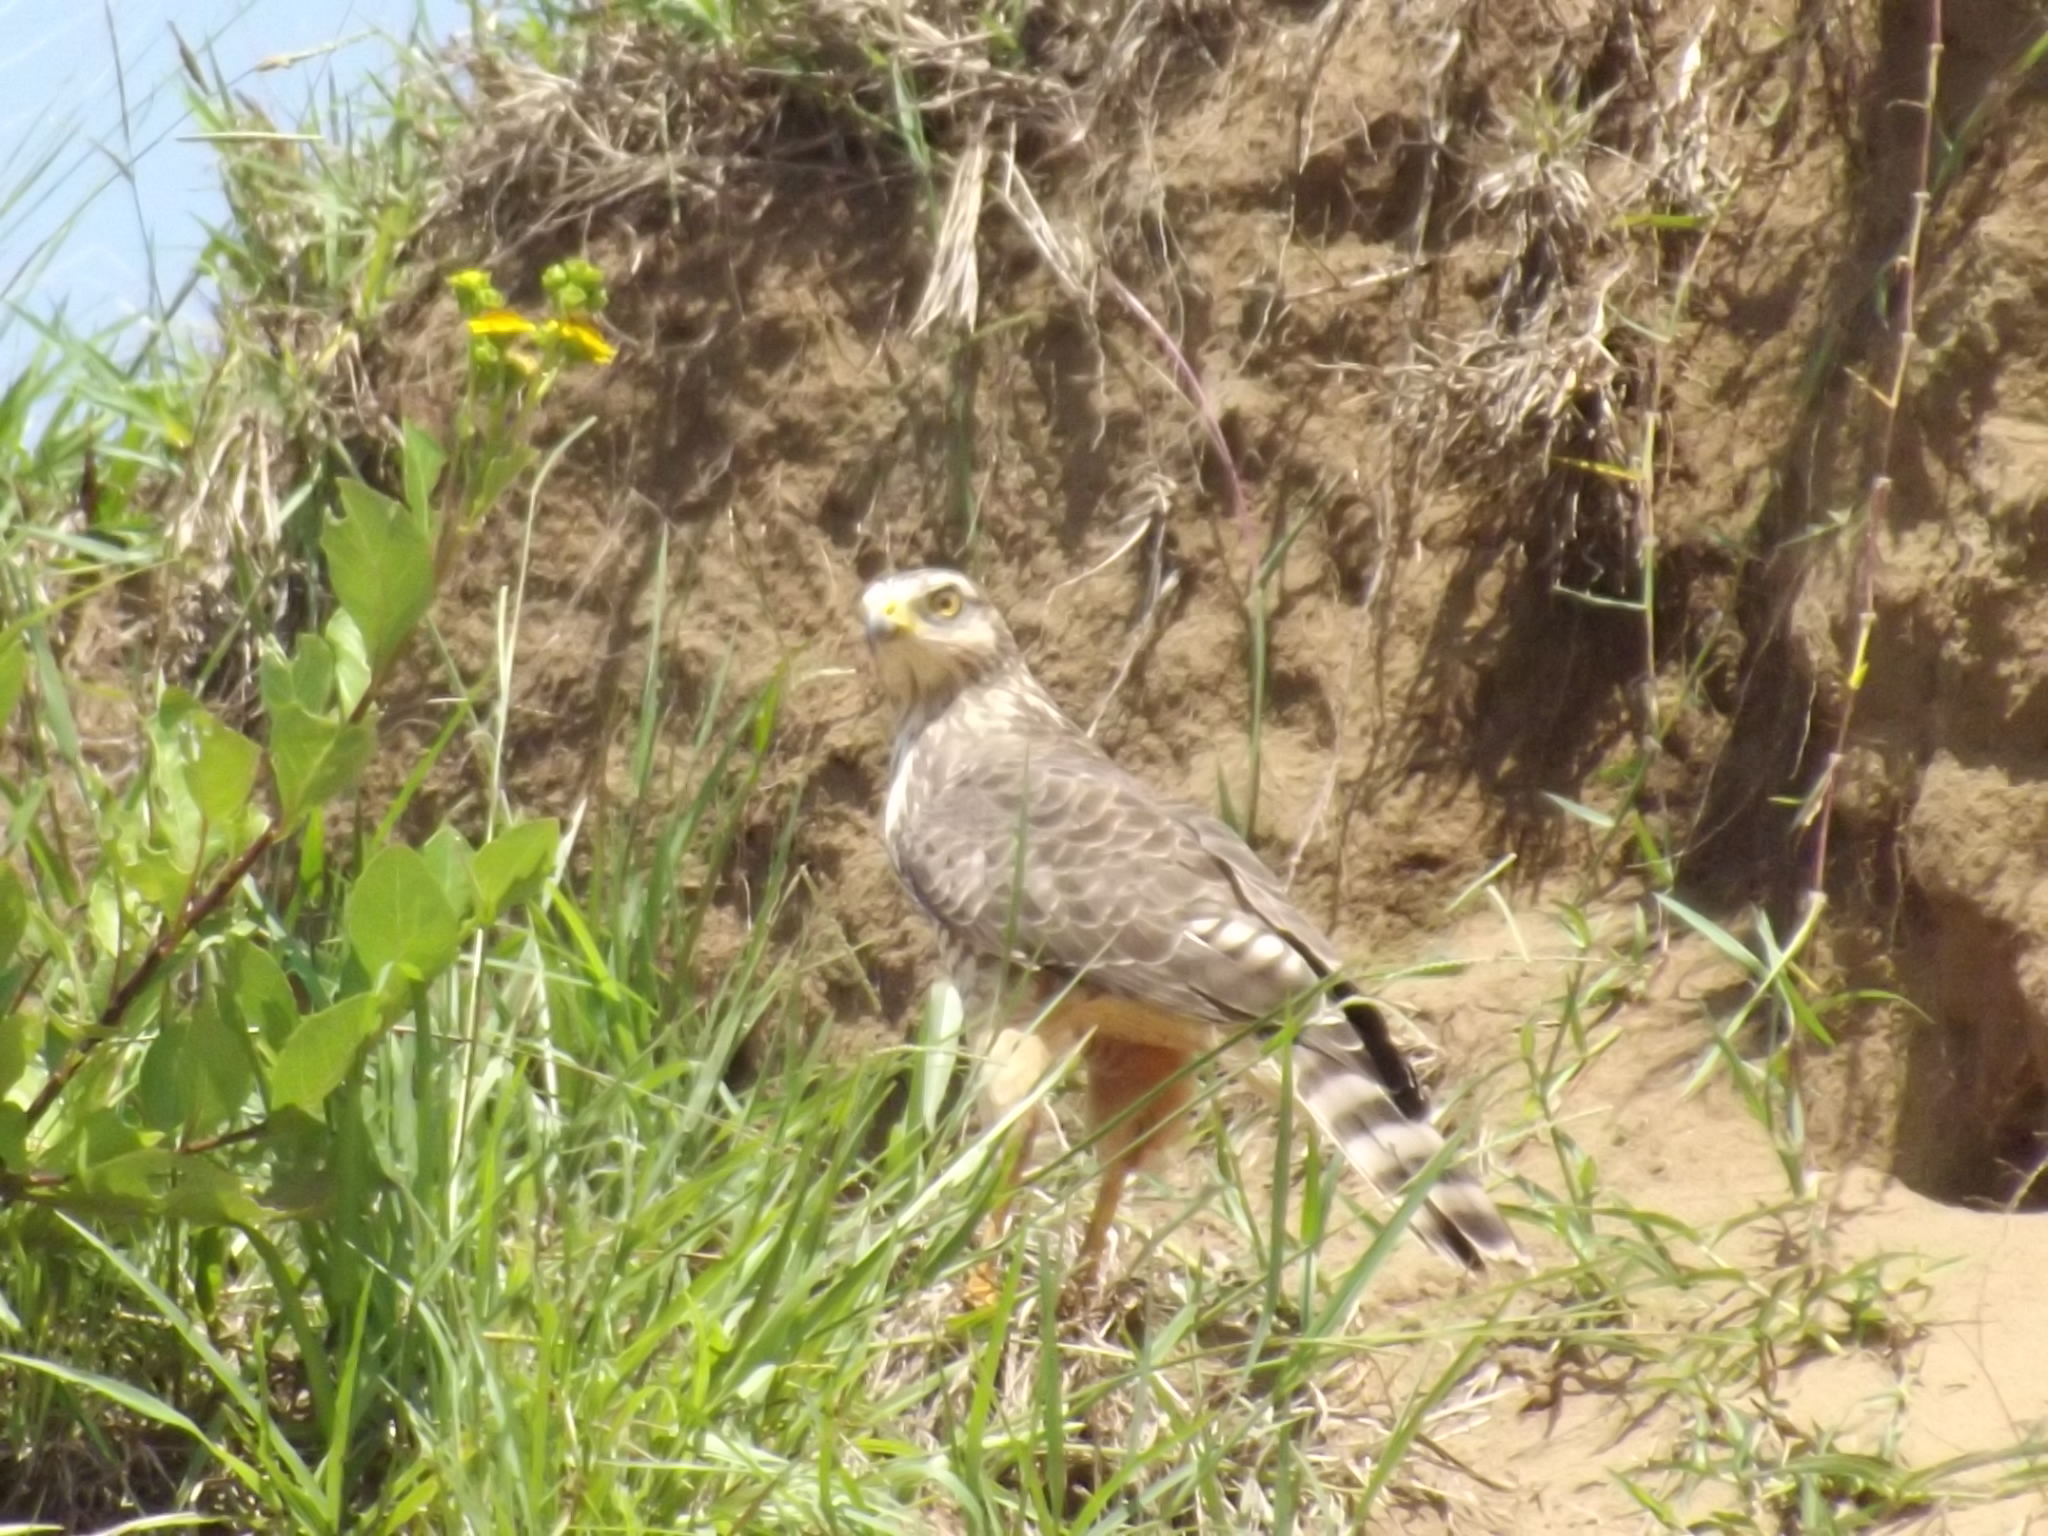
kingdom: Animalia
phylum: Chordata
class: Aves
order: Accipitriformes
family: Accipitridae
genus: Rupornis
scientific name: Rupornis magnirostris
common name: Roadside hawk
